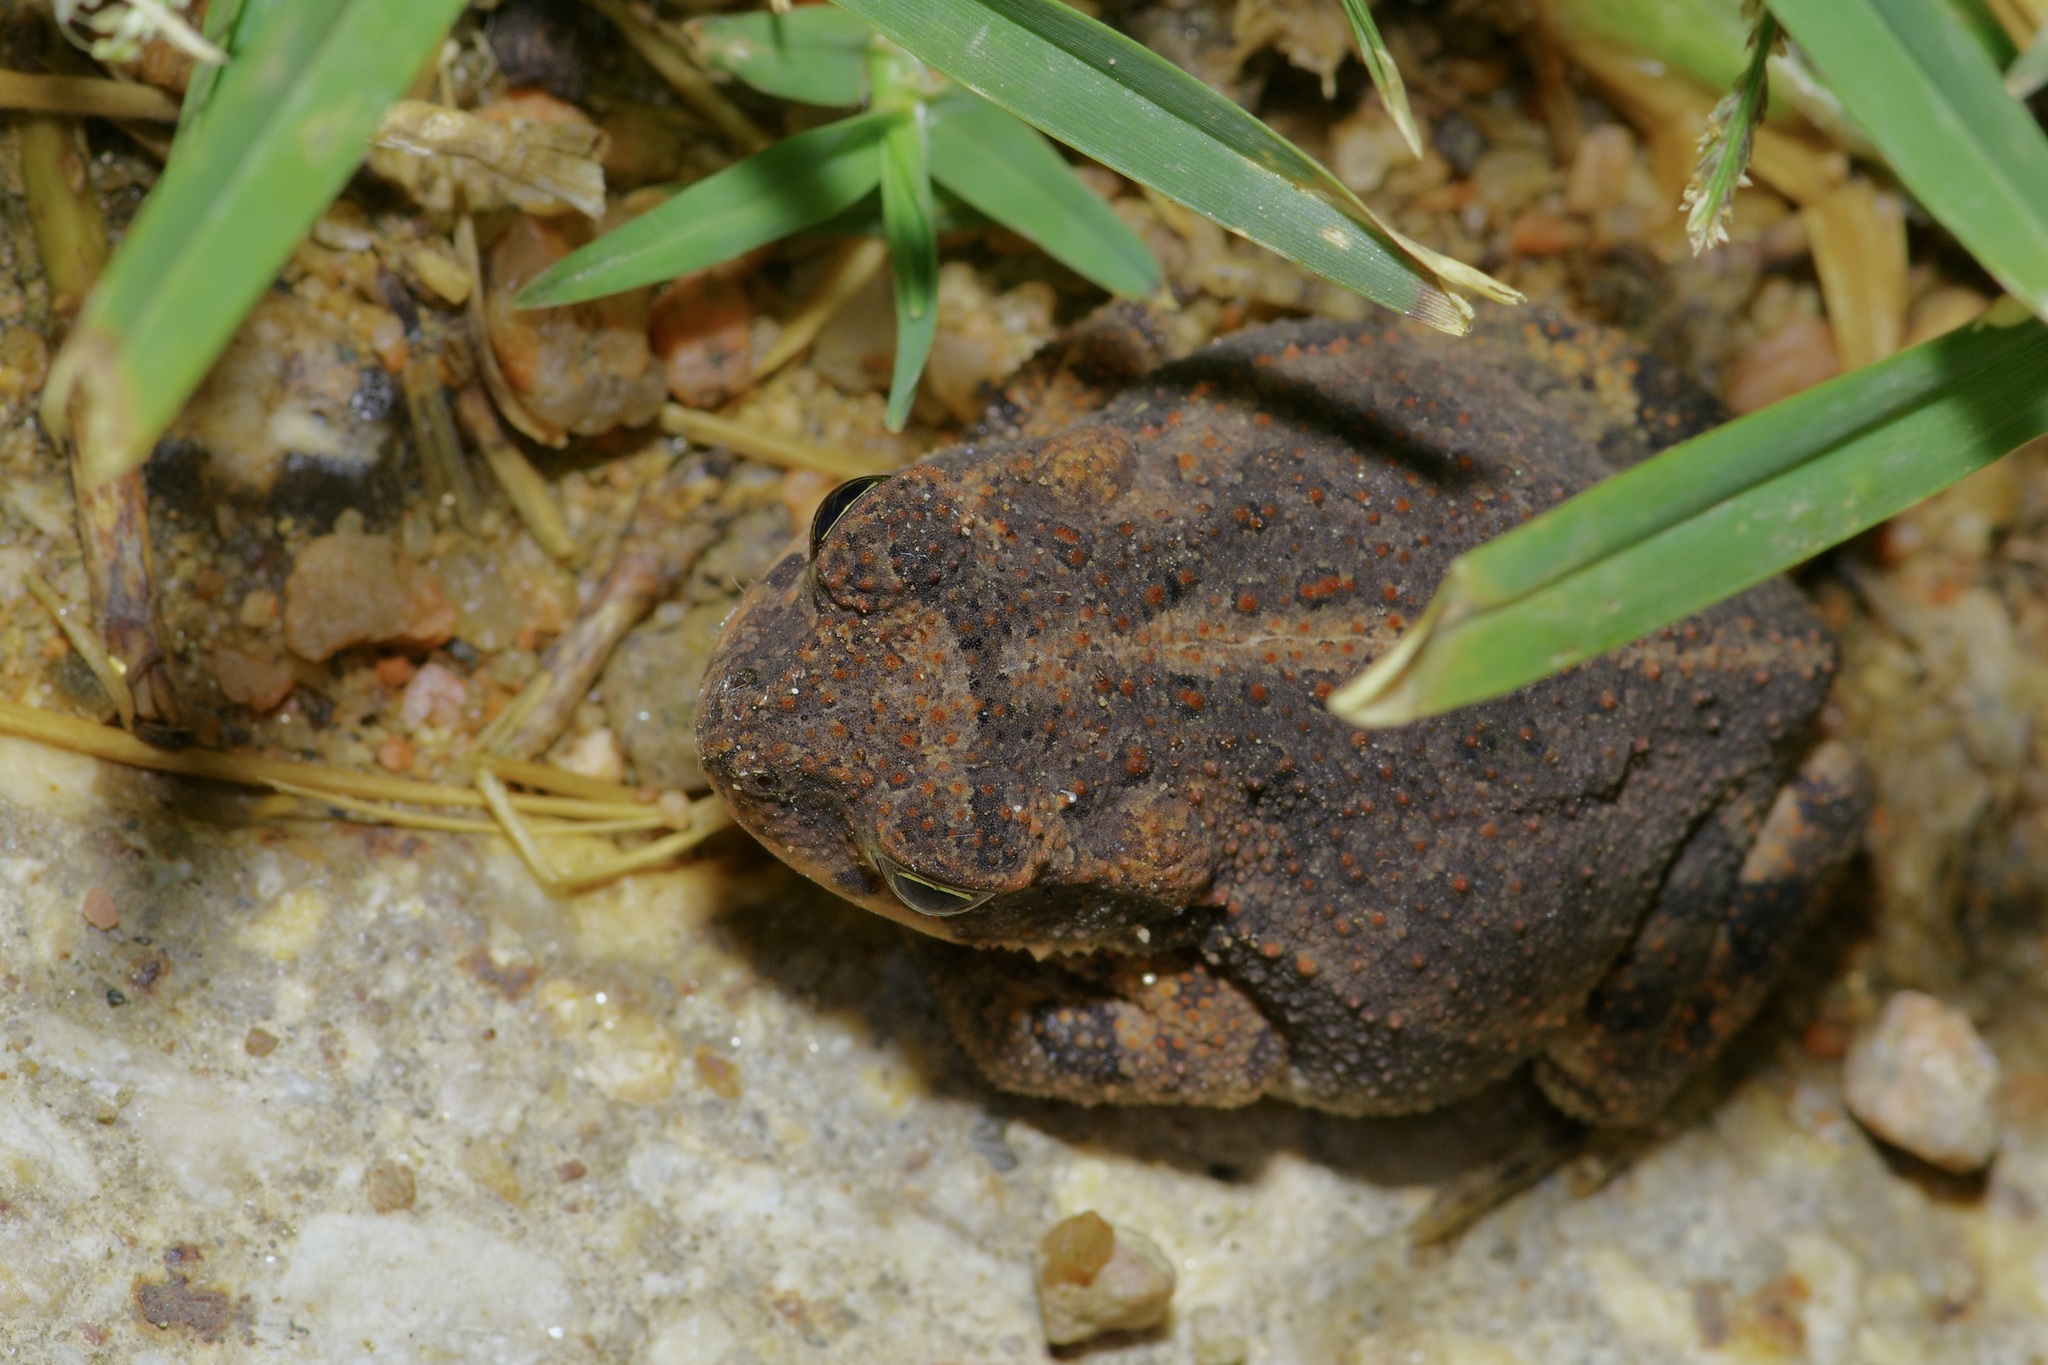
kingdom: Animalia
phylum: Chordata
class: Amphibia
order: Anura
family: Bufonidae
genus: Incilius
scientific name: Incilius nebulifer
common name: Gulf coast toad
